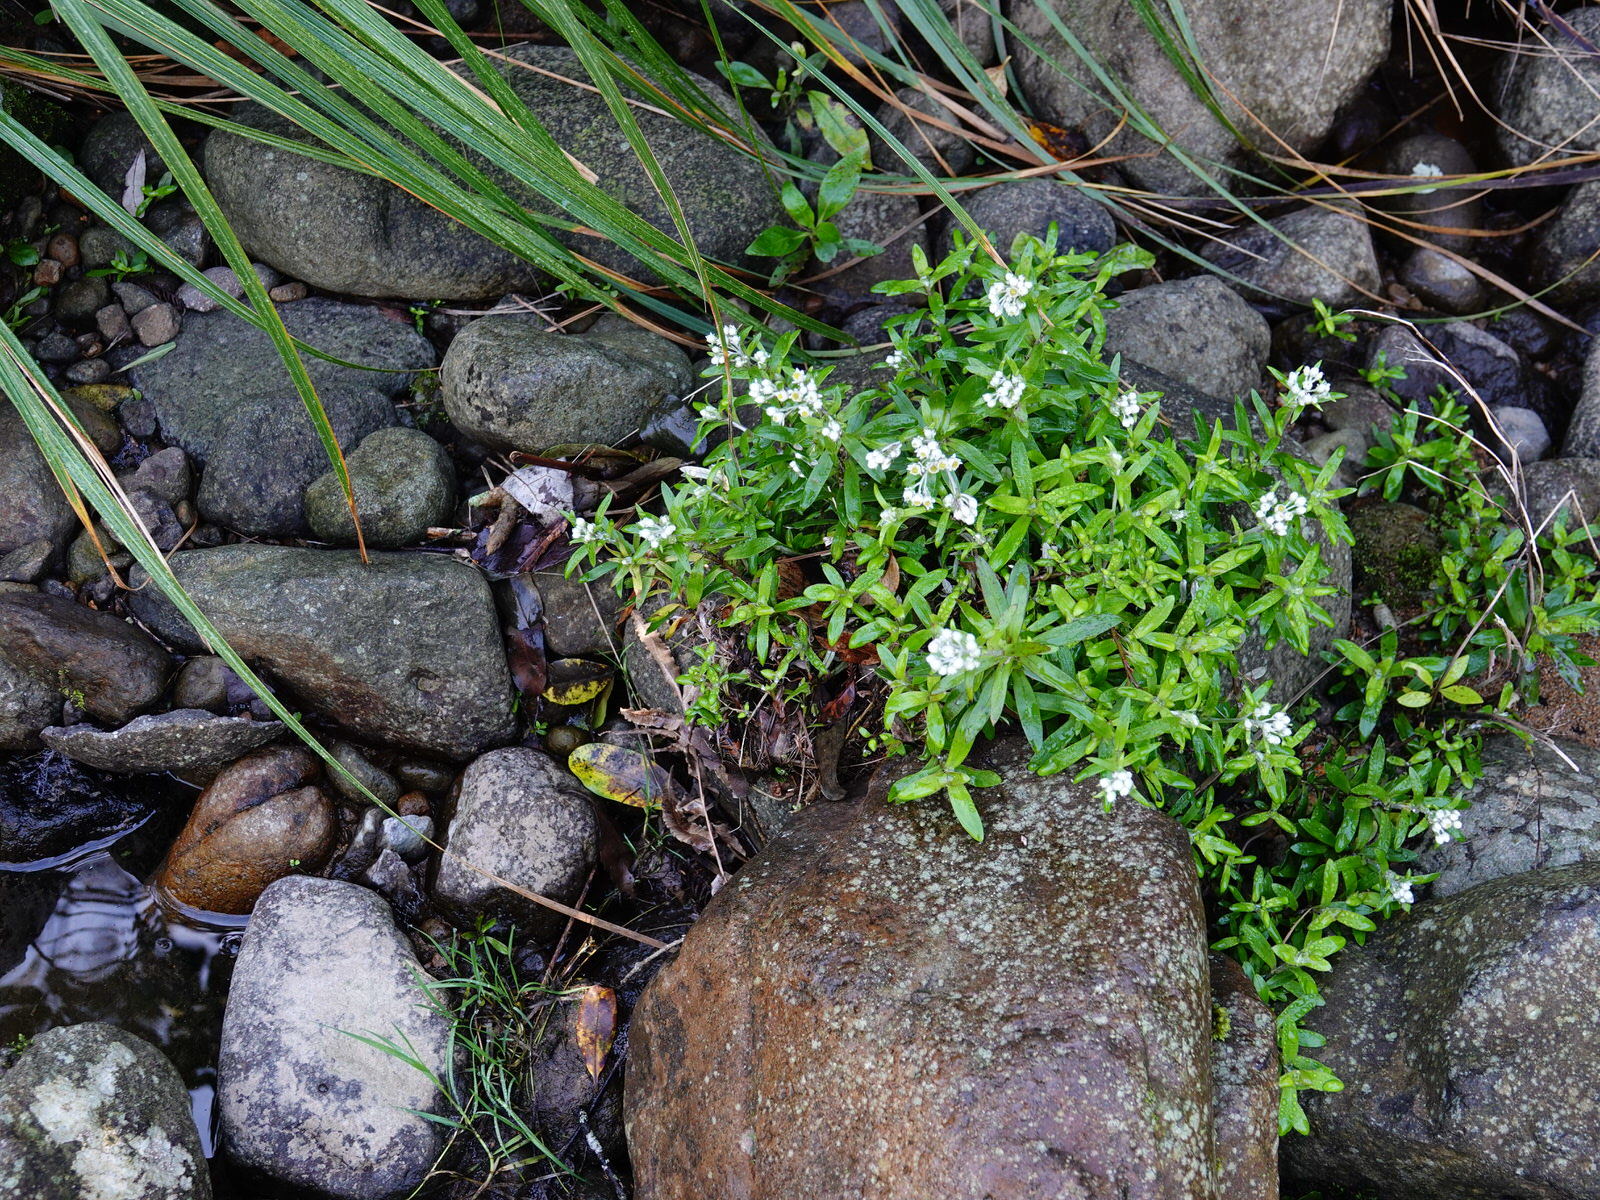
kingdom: Plantae
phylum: Tracheophyta
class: Magnoliopsida
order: Asterales
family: Asteraceae
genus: Anaphalioides
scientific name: Anaphalioides trinervis
